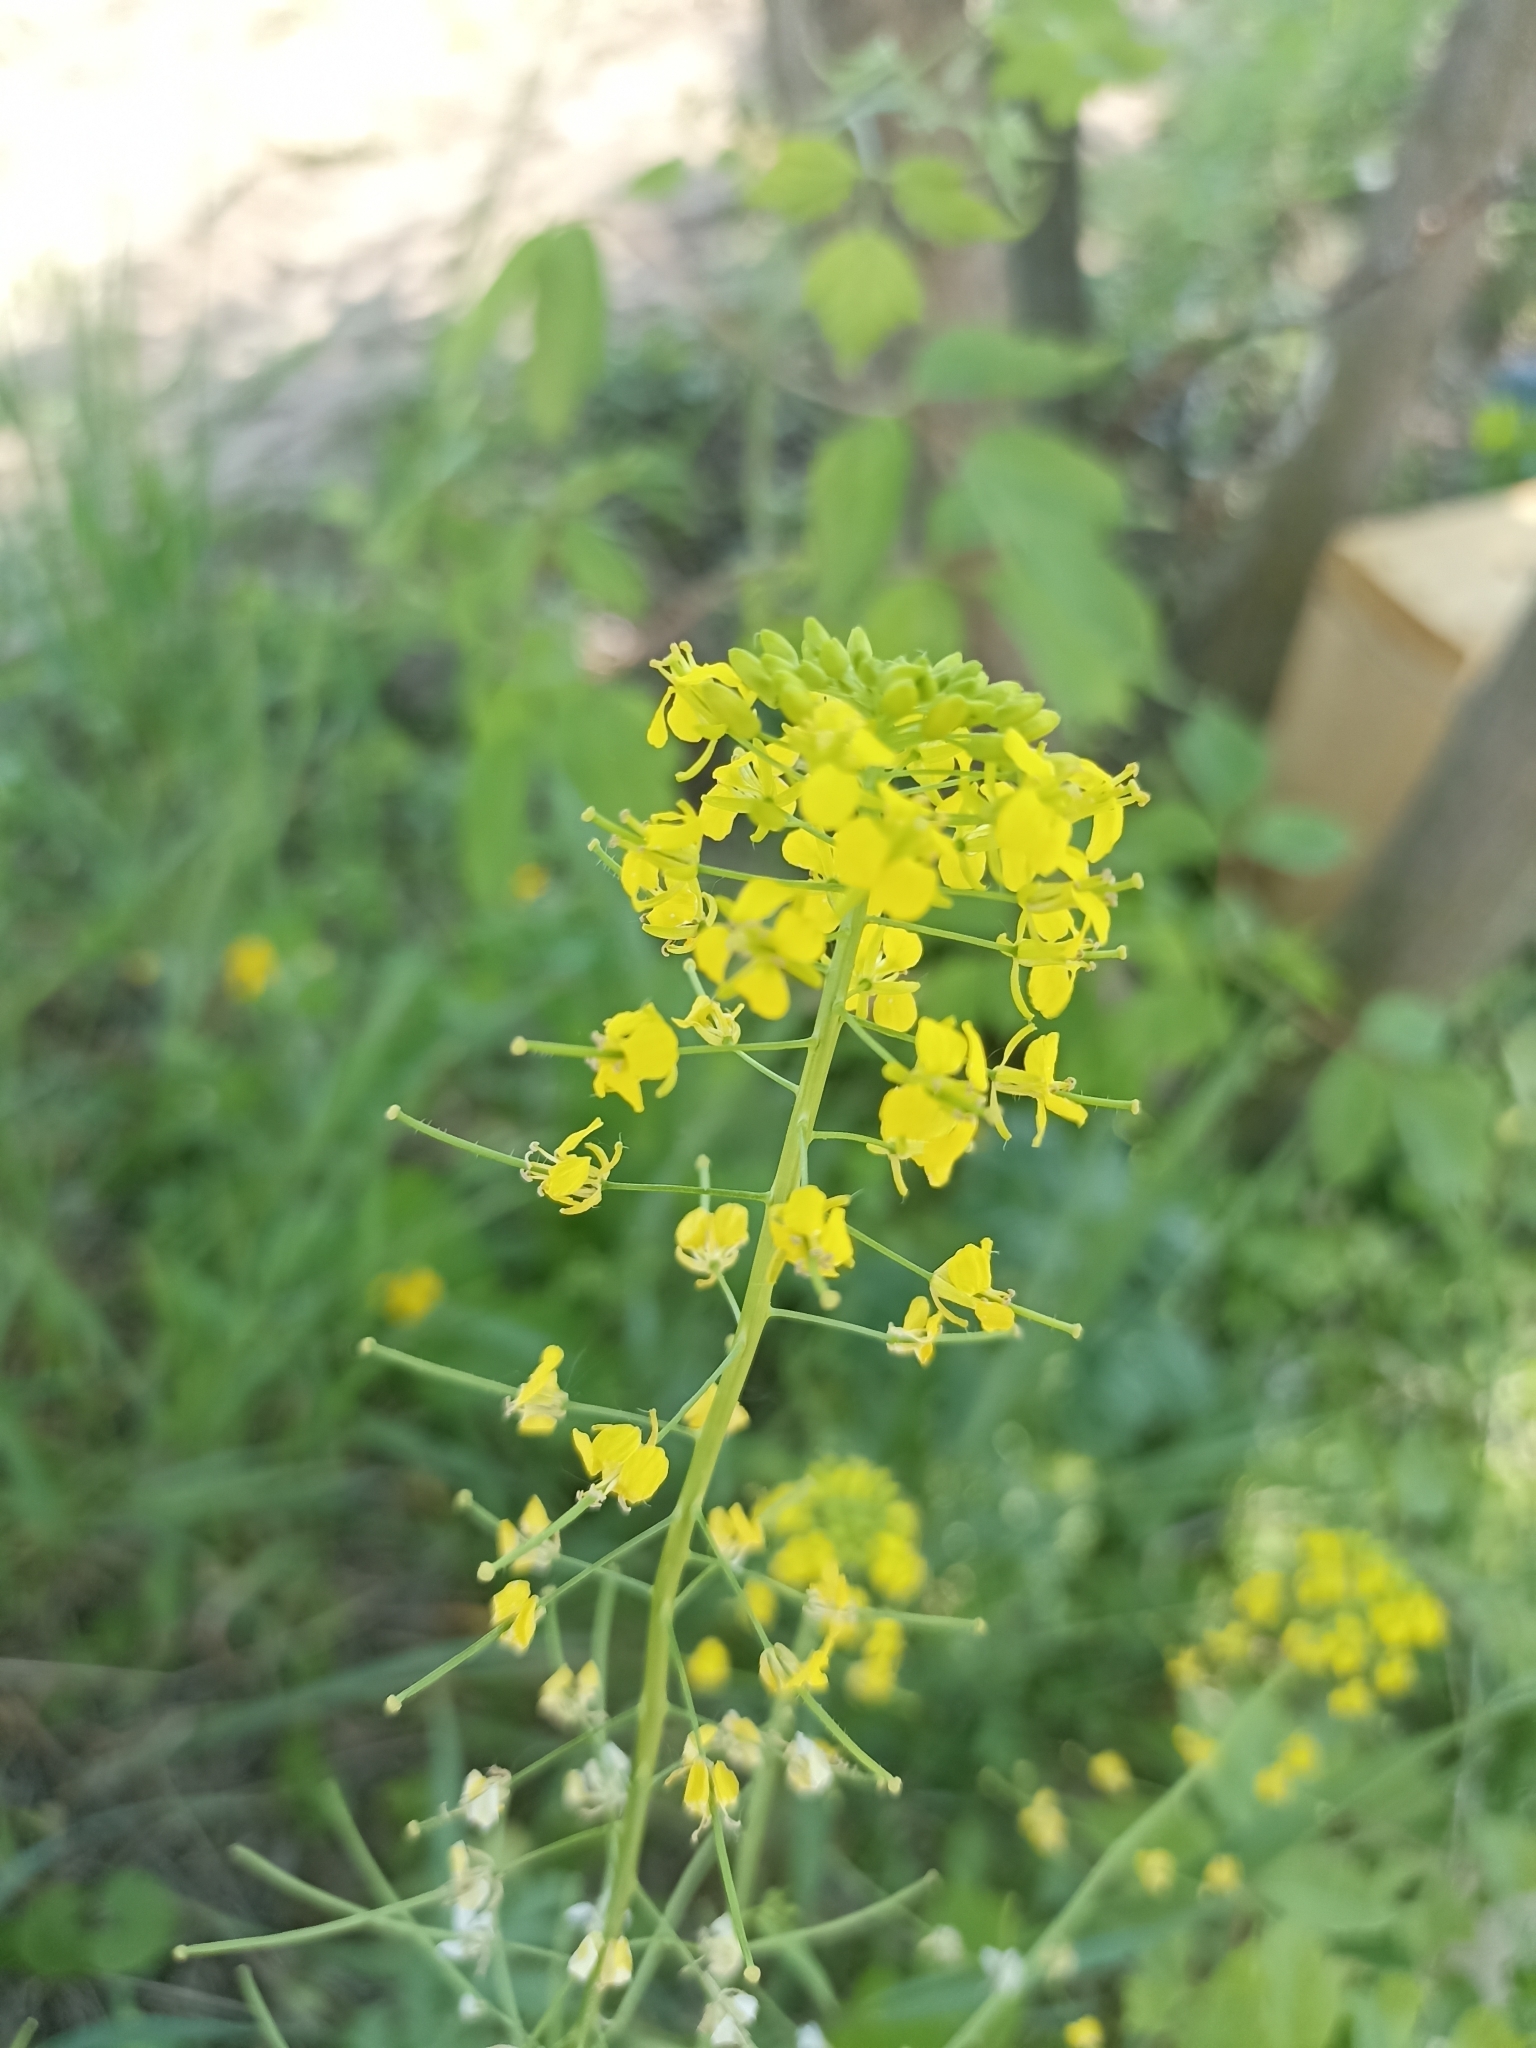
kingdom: Plantae
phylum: Tracheophyta
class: Magnoliopsida
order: Brassicales
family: Brassicaceae
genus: Sisymbrium
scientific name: Sisymbrium loeselii
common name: False london-rocket
